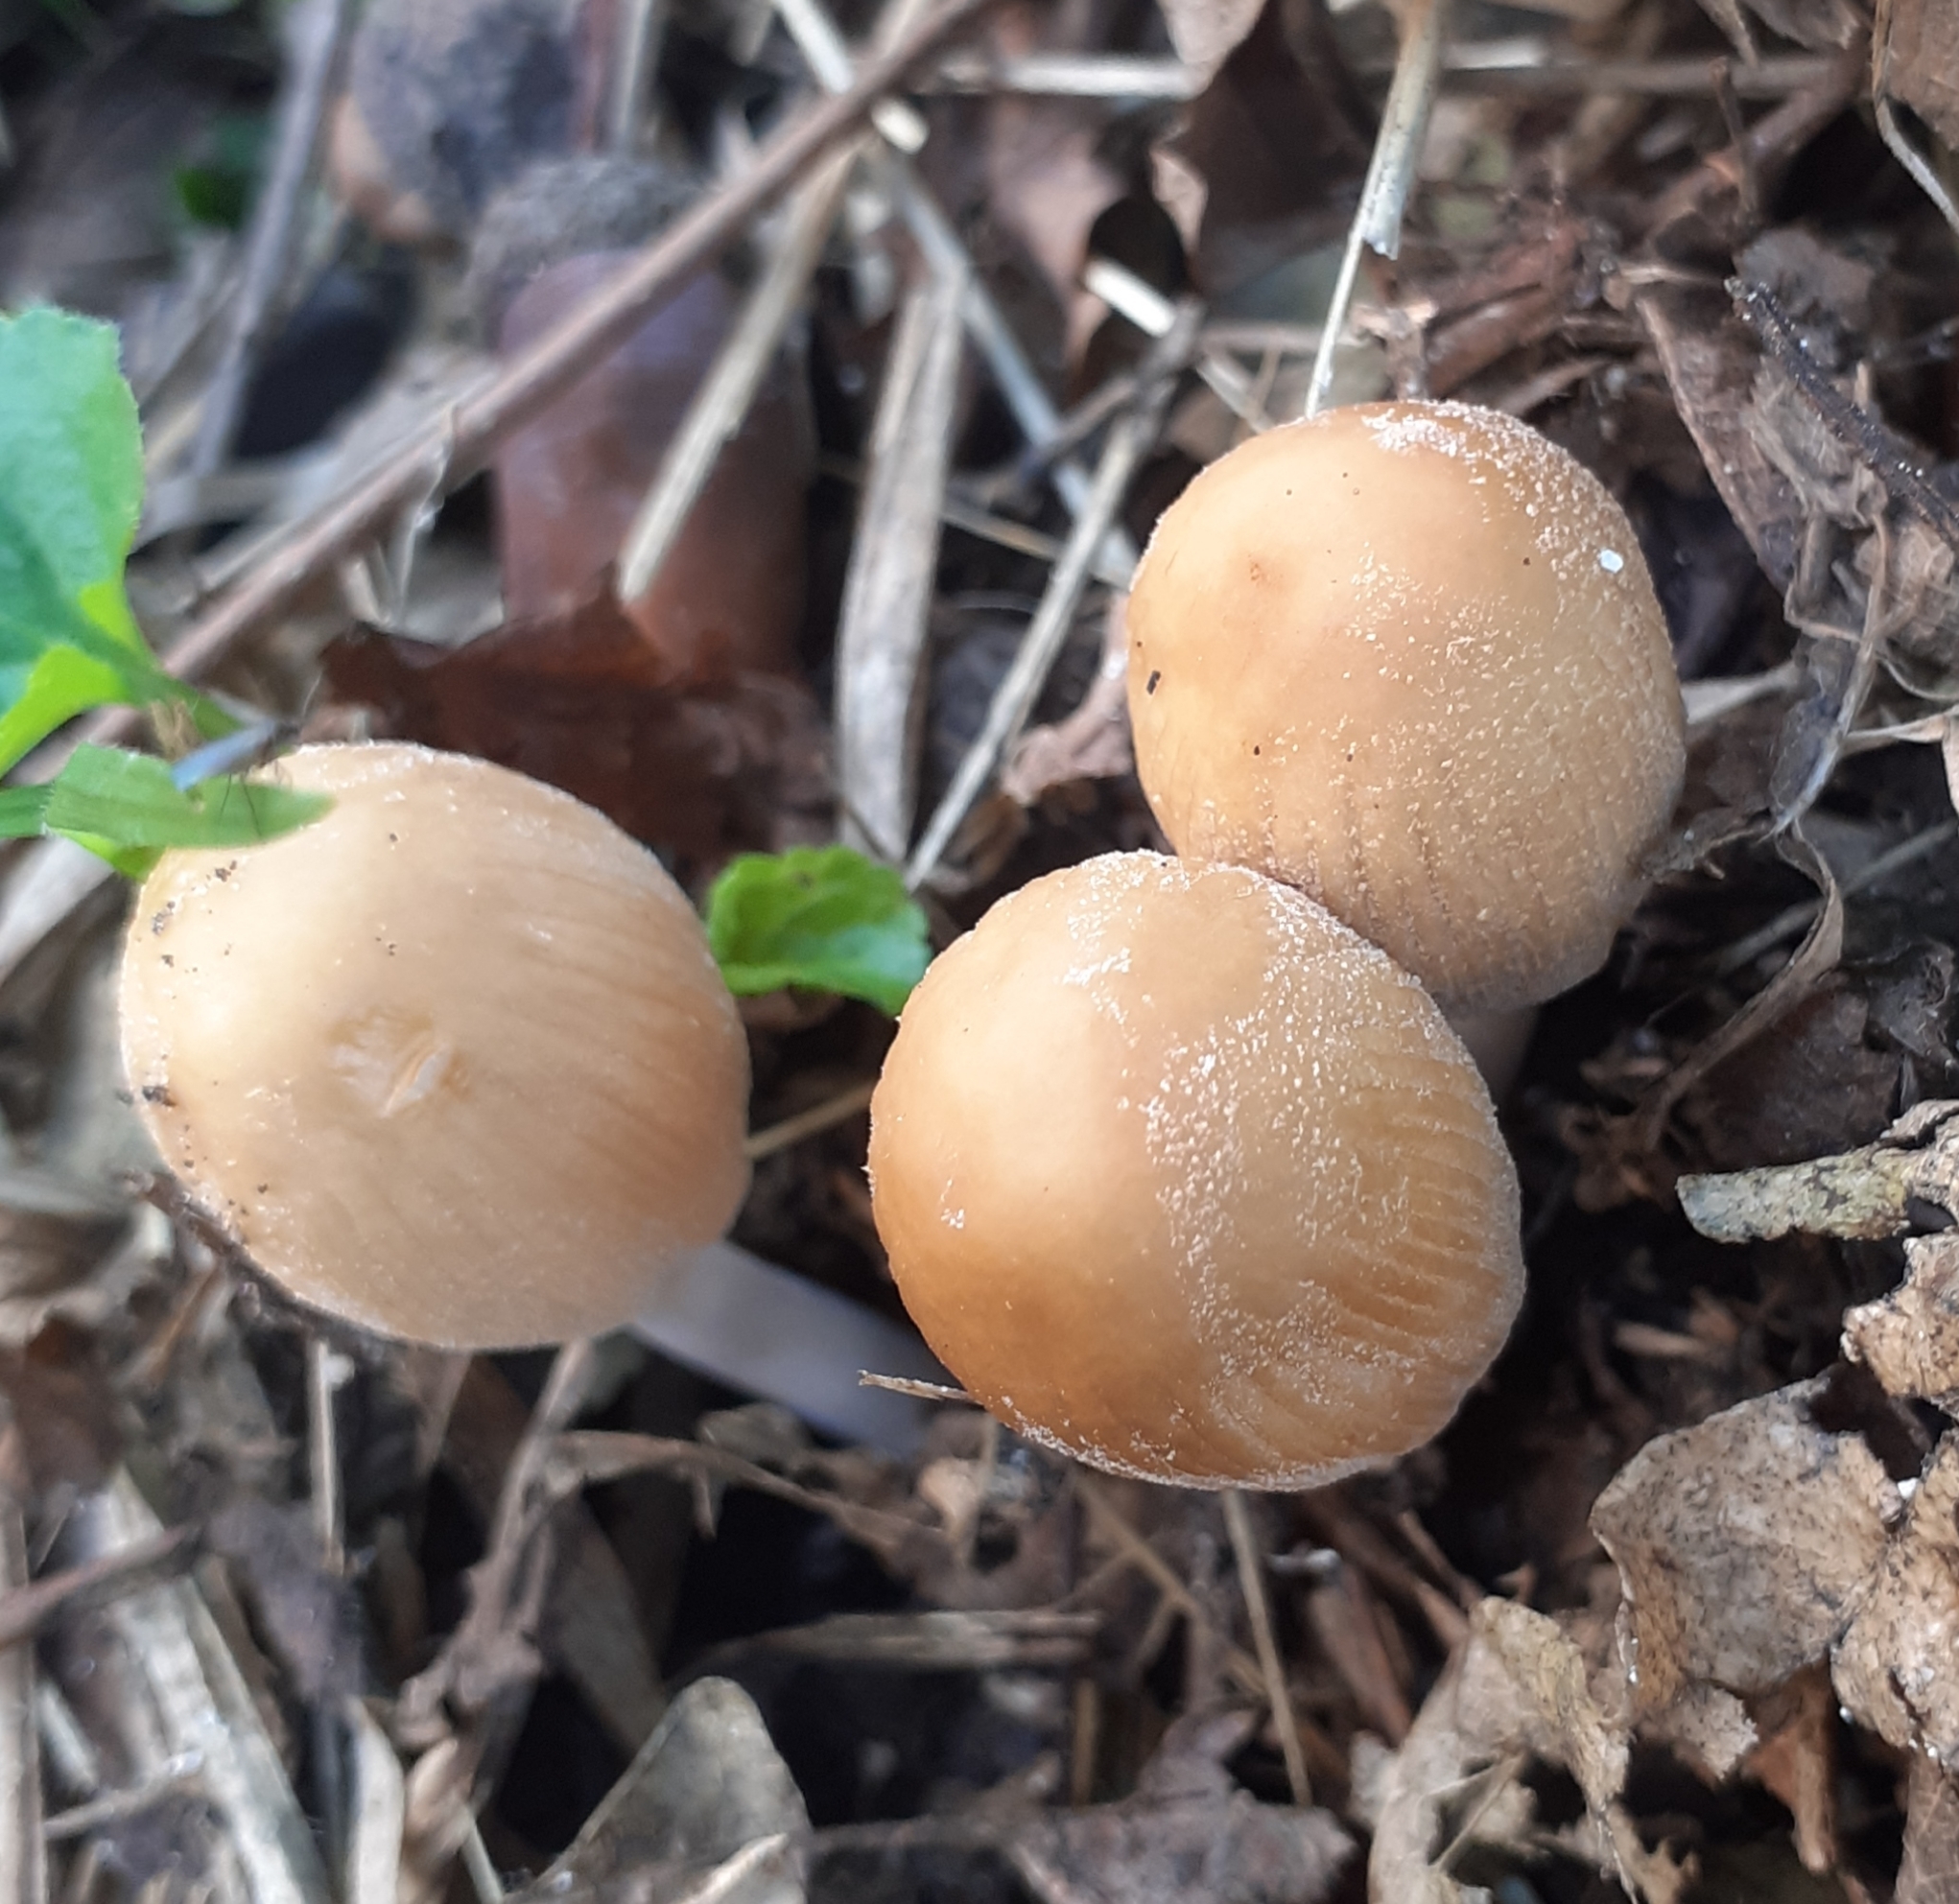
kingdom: Fungi
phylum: Basidiomycota
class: Agaricomycetes
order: Agaricales
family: Psathyrellaceae
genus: Coprinellus
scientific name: Coprinellus micaceus
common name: Glistening ink-cap
